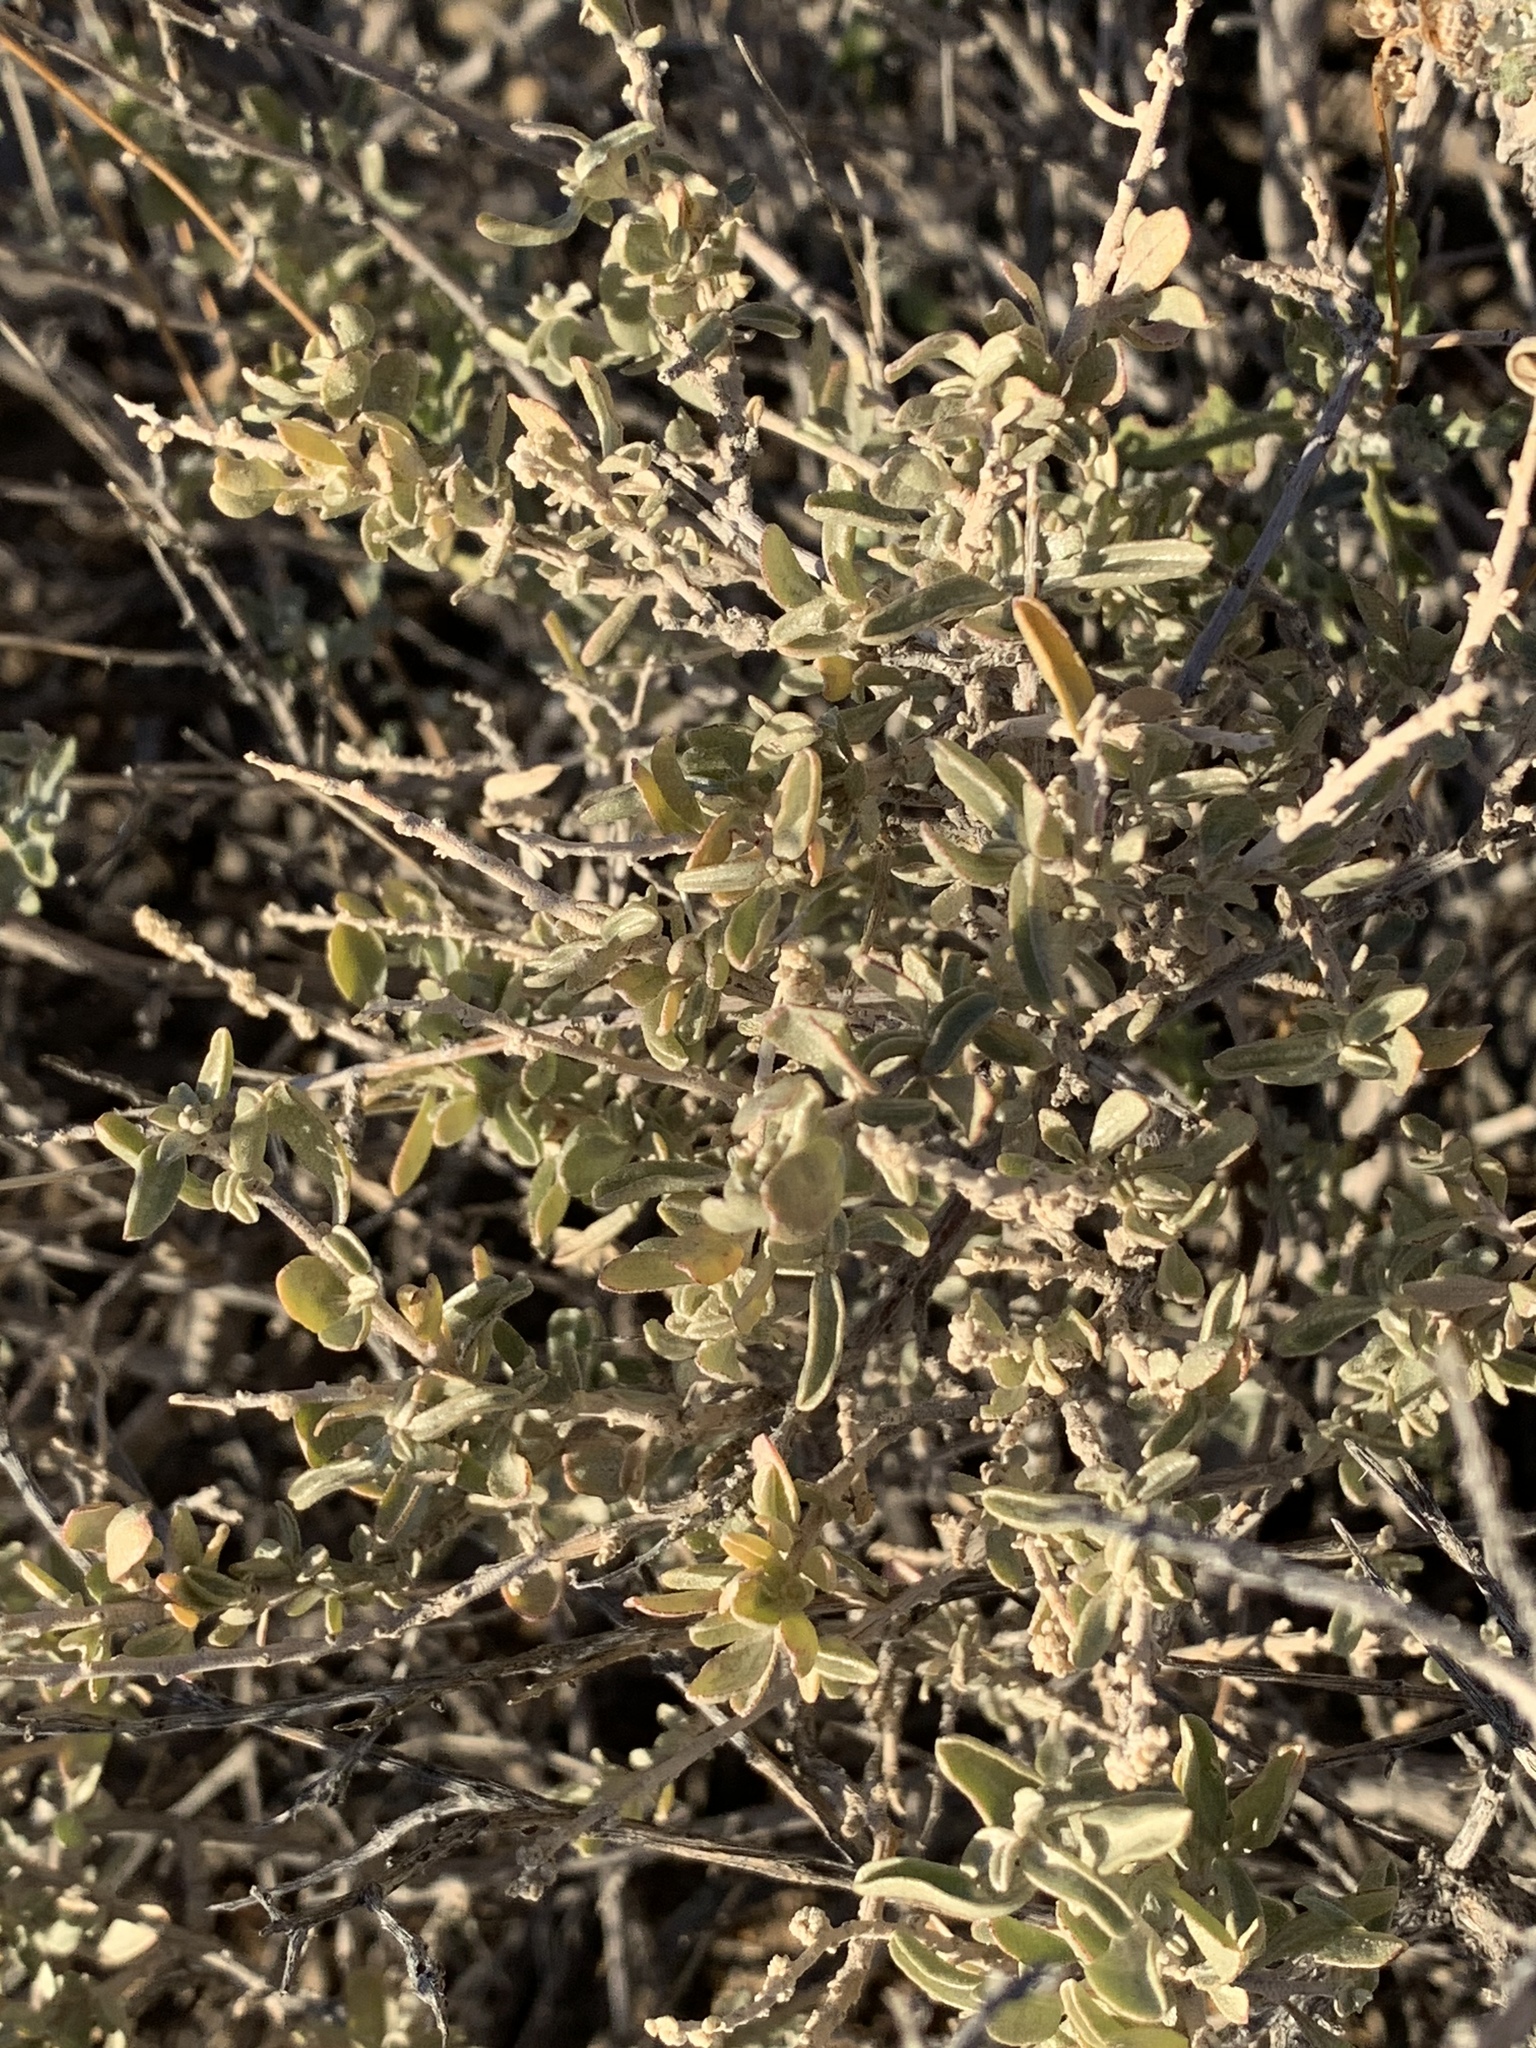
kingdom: Plantae
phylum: Tracheophyta
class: Magnoliopsida
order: Caryophyllales
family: Amaranthaceae
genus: Atriplex
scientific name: Atriplex canescens
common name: Four-wing saltbush
